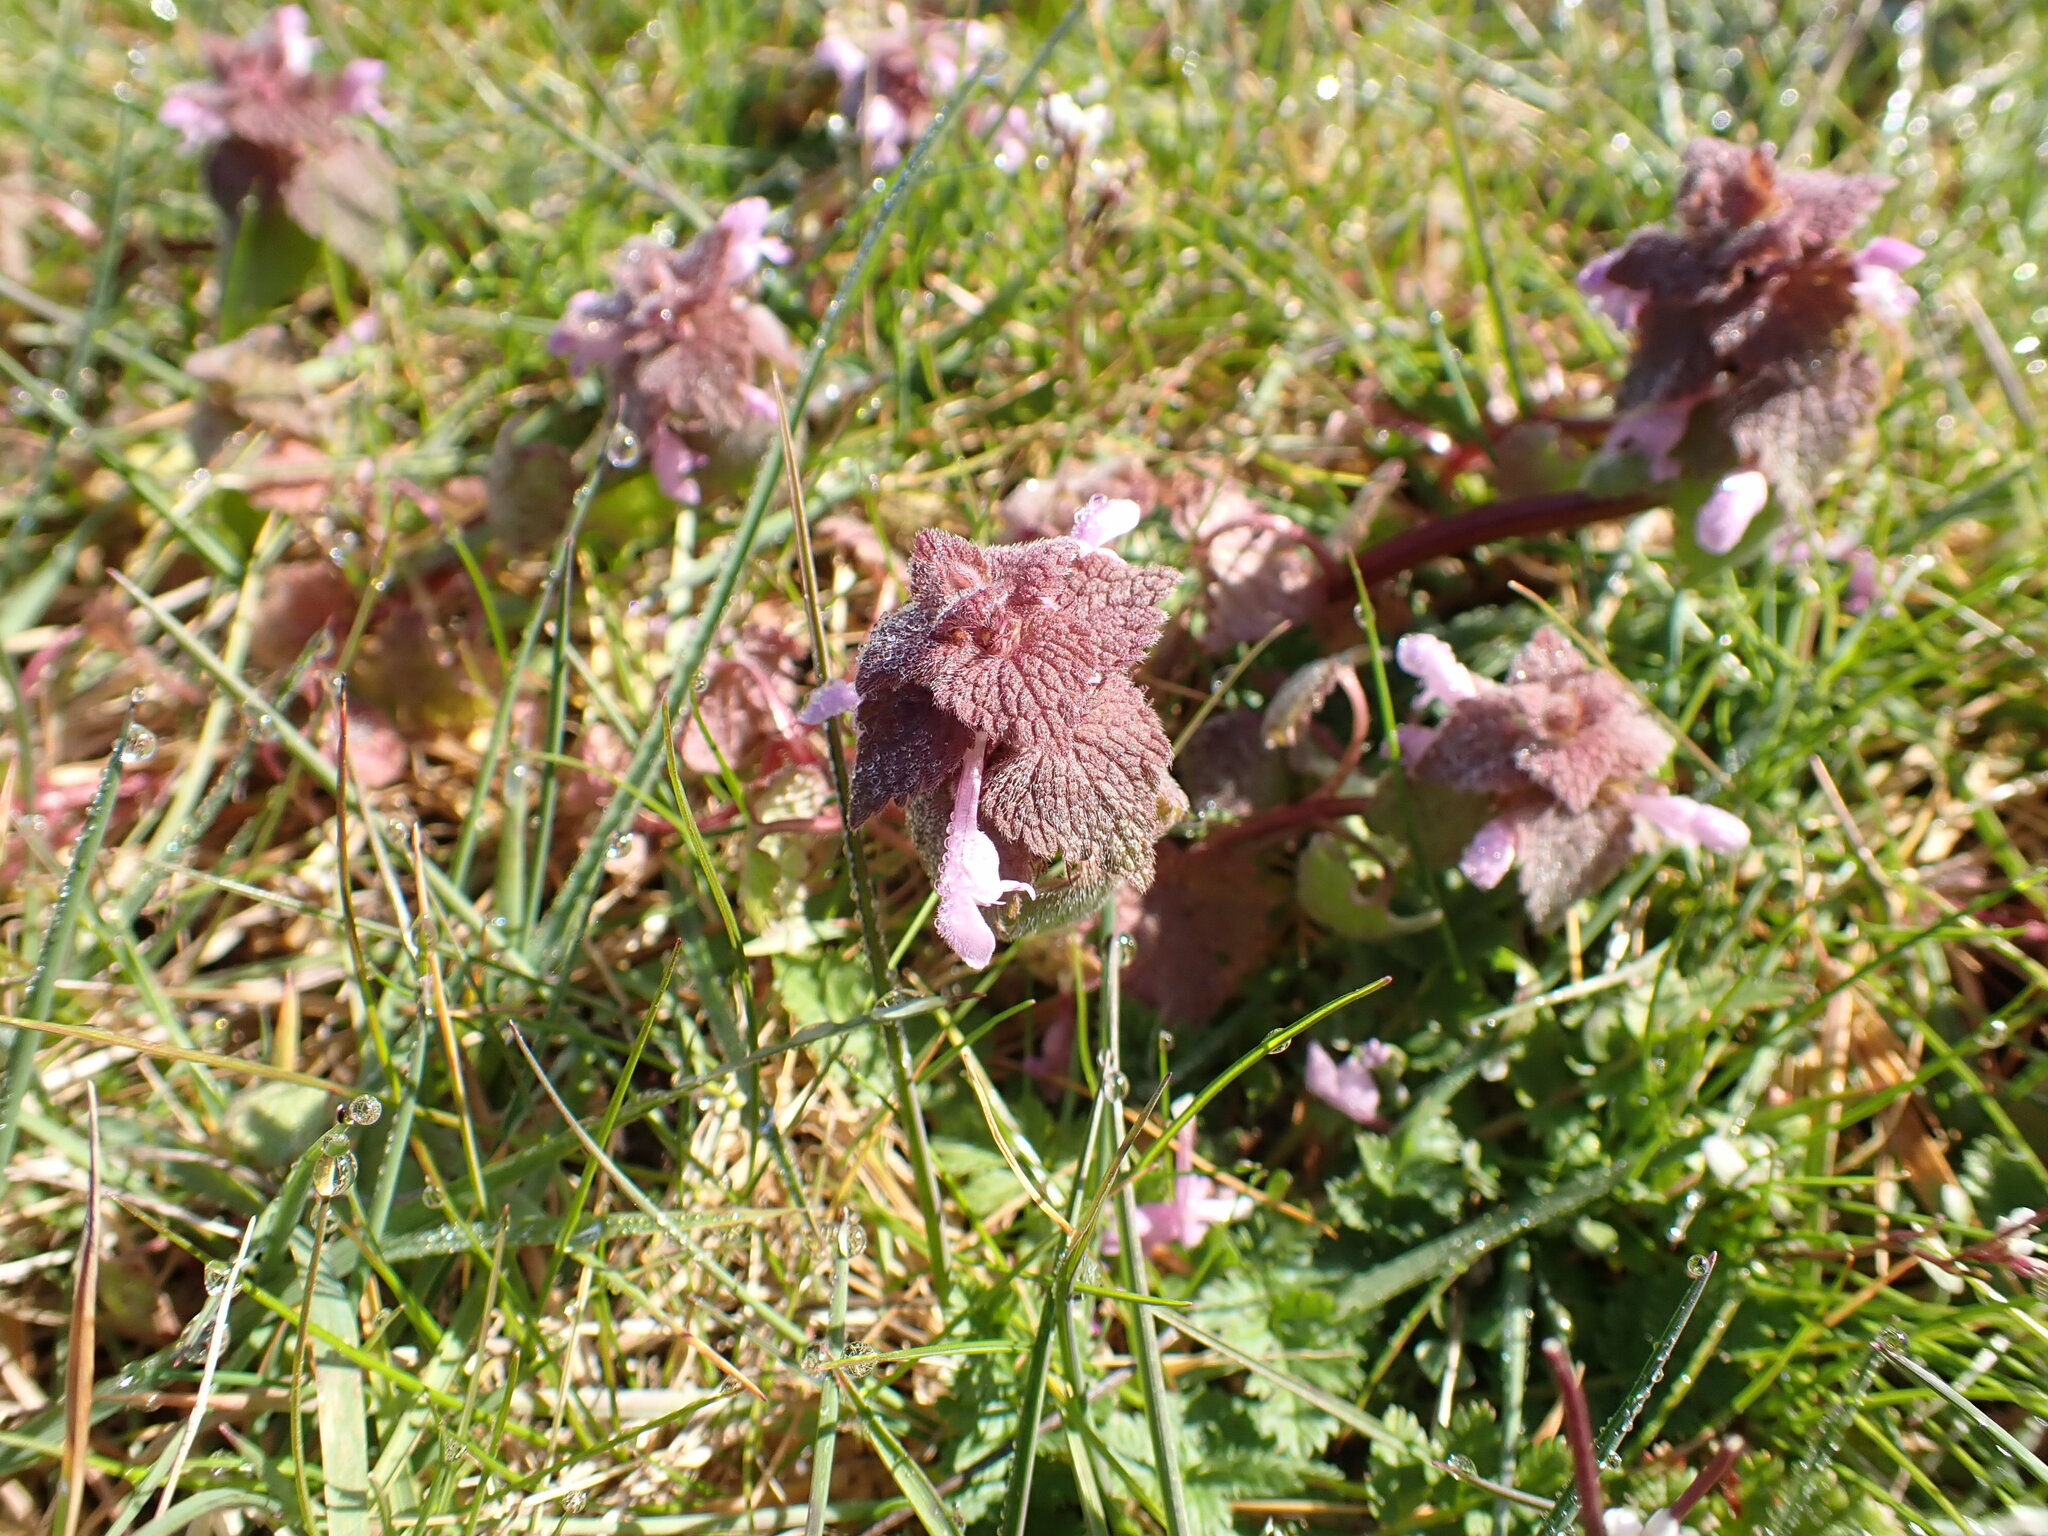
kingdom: Plantae
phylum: Tracheophyta
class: Magnoliopsida
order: Lamiales
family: Lamiaceae
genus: Lamium
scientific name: Lamium purpureum
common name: Red dead-nettle
